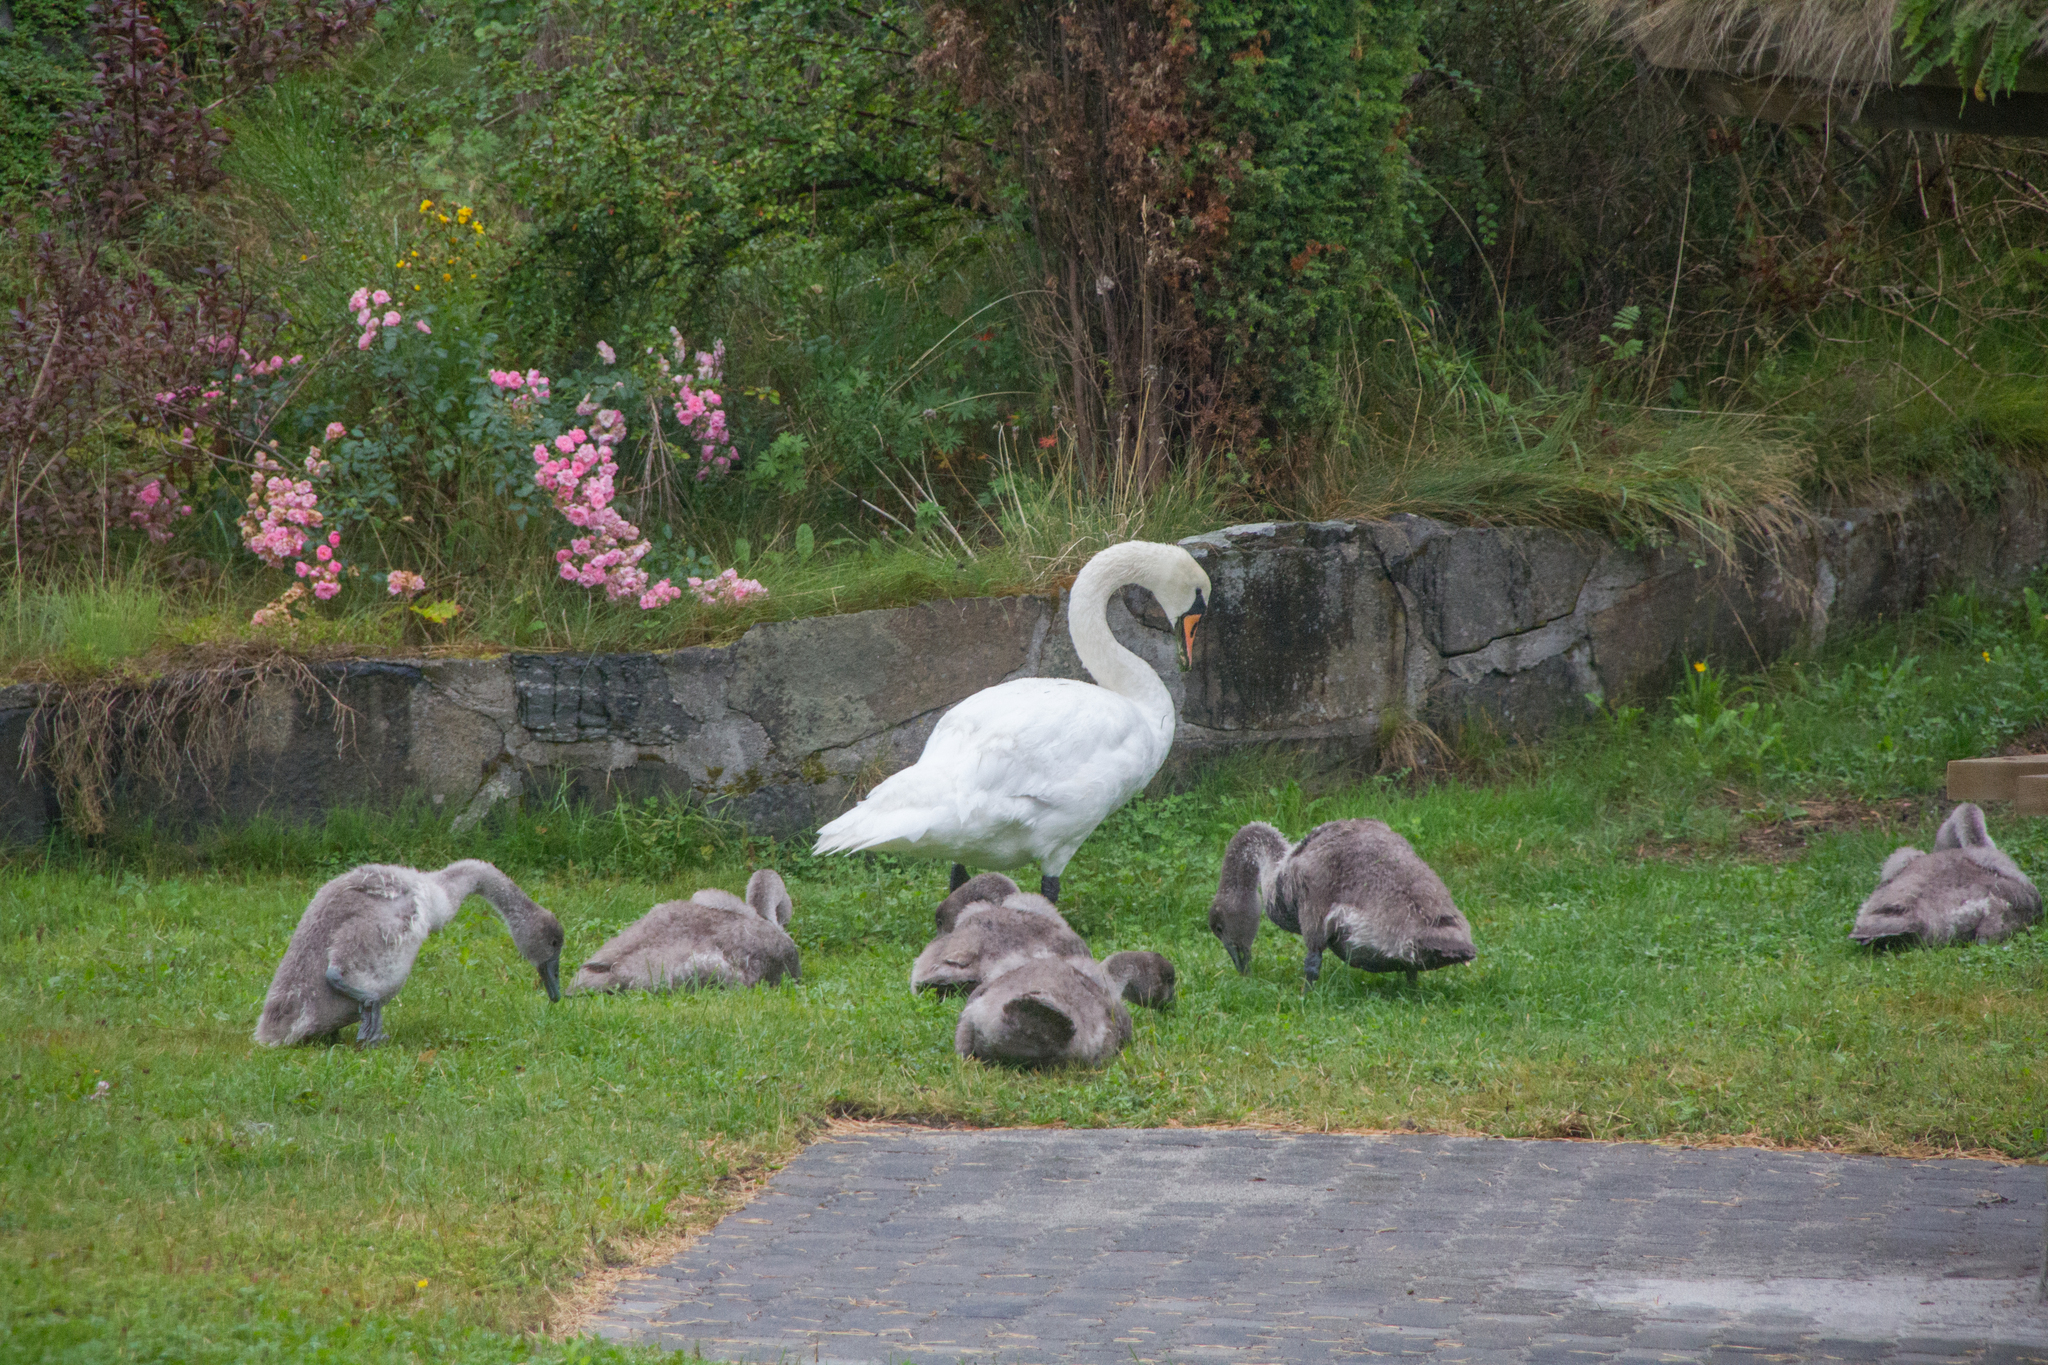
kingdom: Animalia
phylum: Chordata
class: Aves
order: Anseriformes
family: Anatidae
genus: Cygnus
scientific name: Cygnus olor
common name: Mute swan
